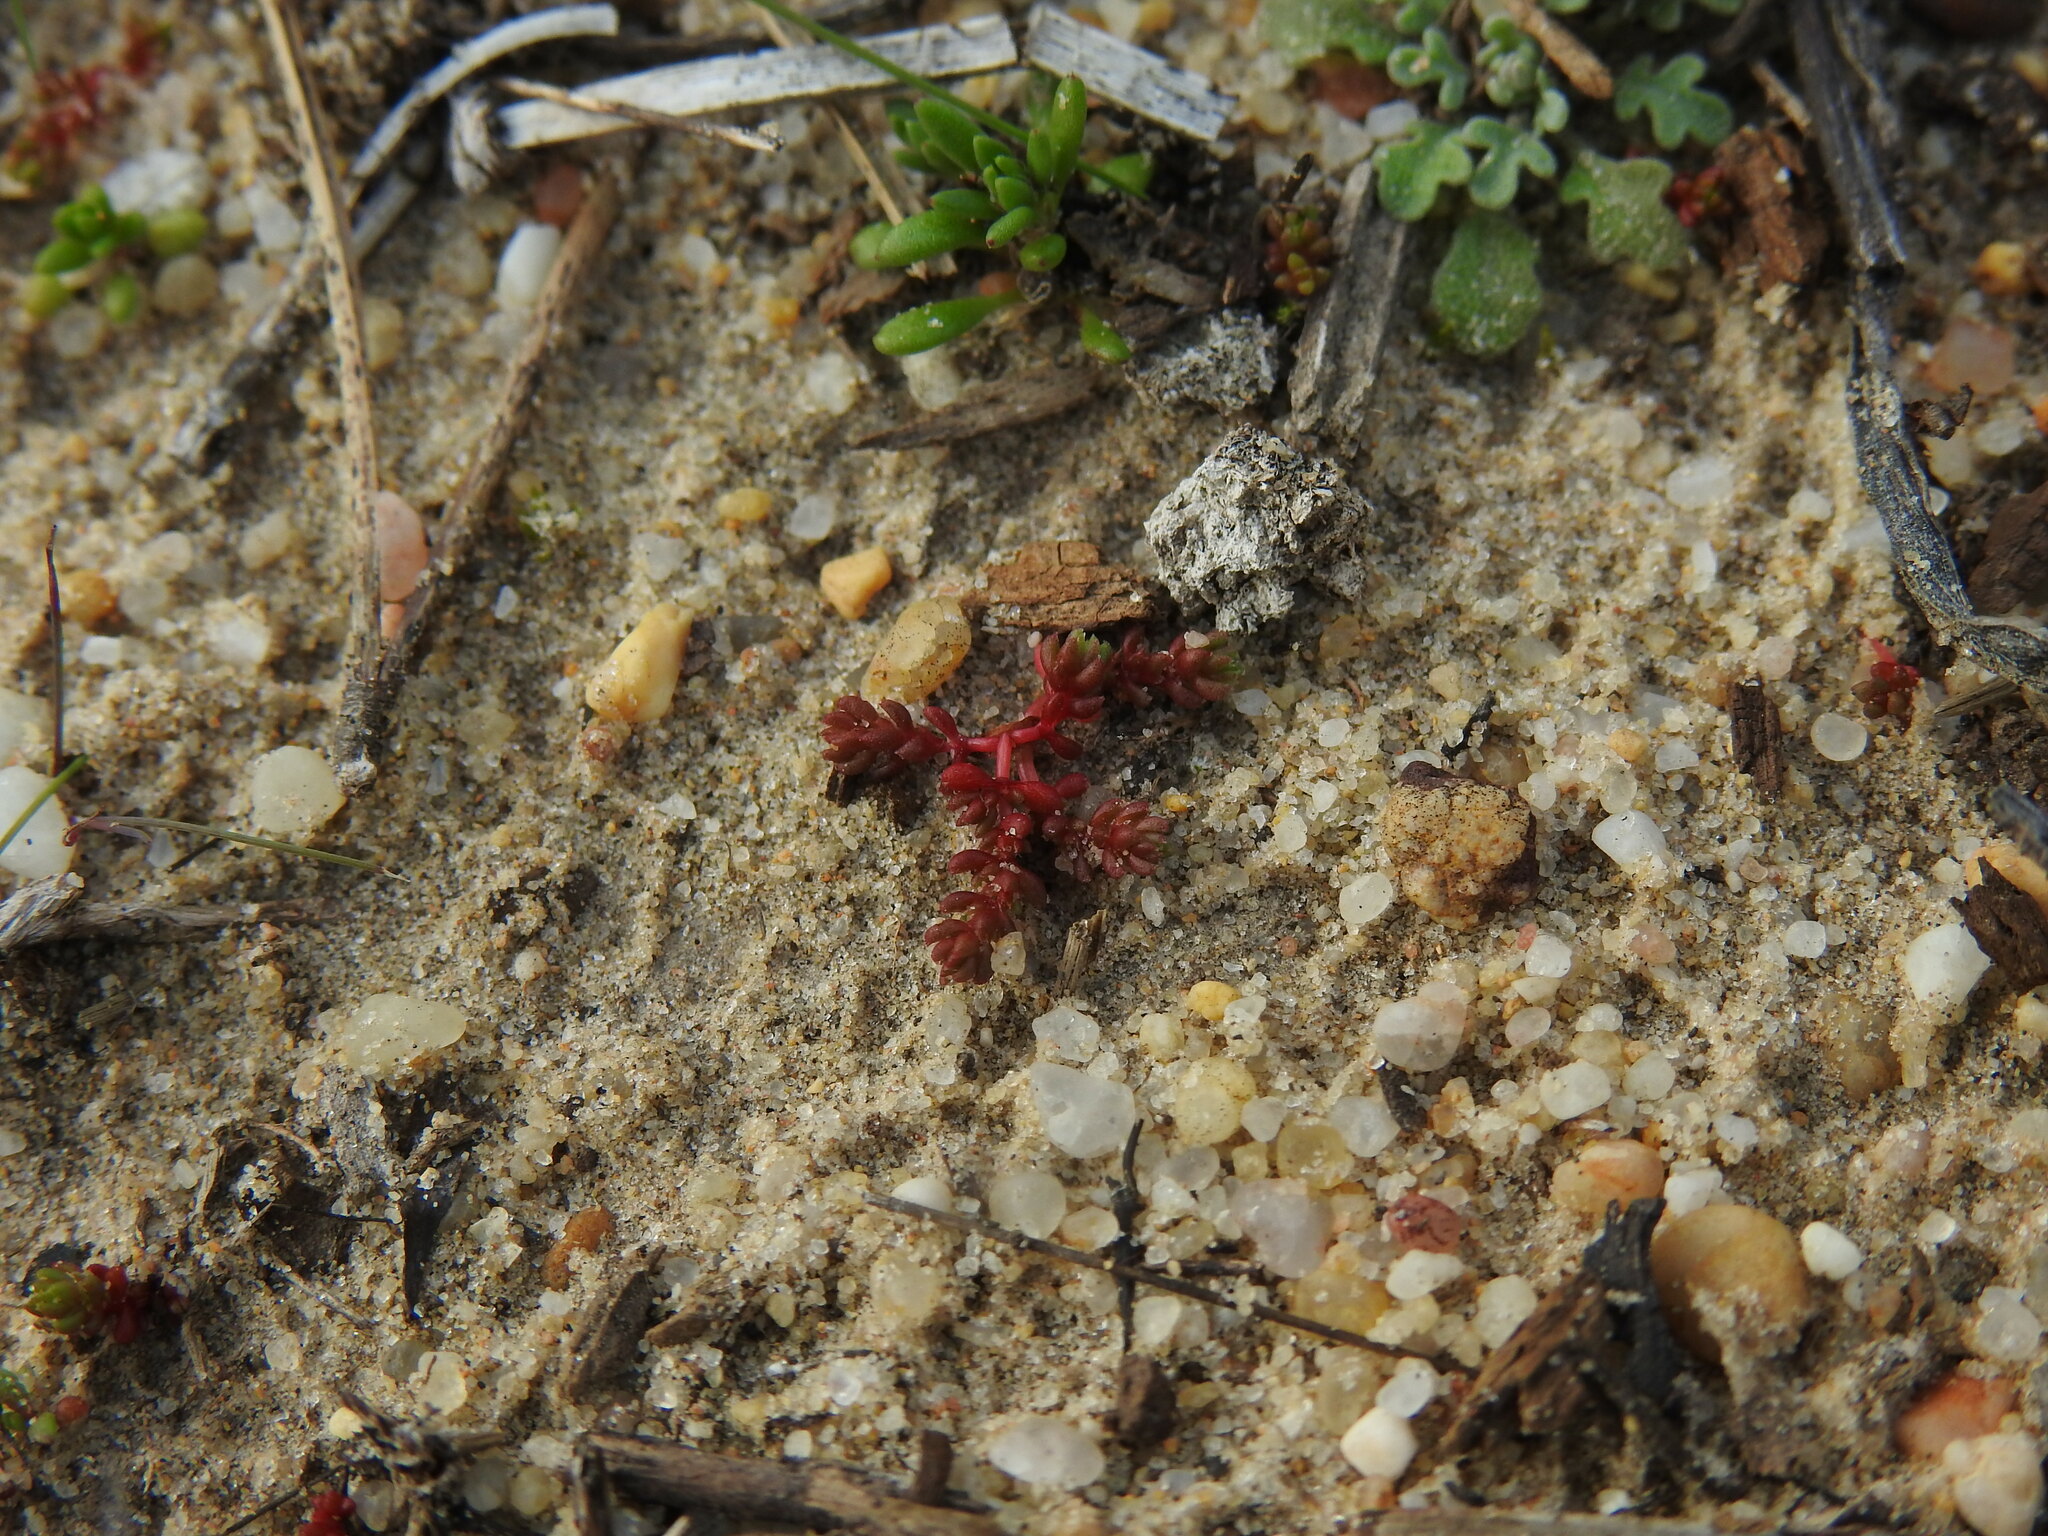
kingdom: Plantae
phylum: Tracheophyta
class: Magnoliopsida
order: Saxifragales
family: Crassulaceae
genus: Crassula
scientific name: Crassula tillaea
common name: Mossy stonecrop
